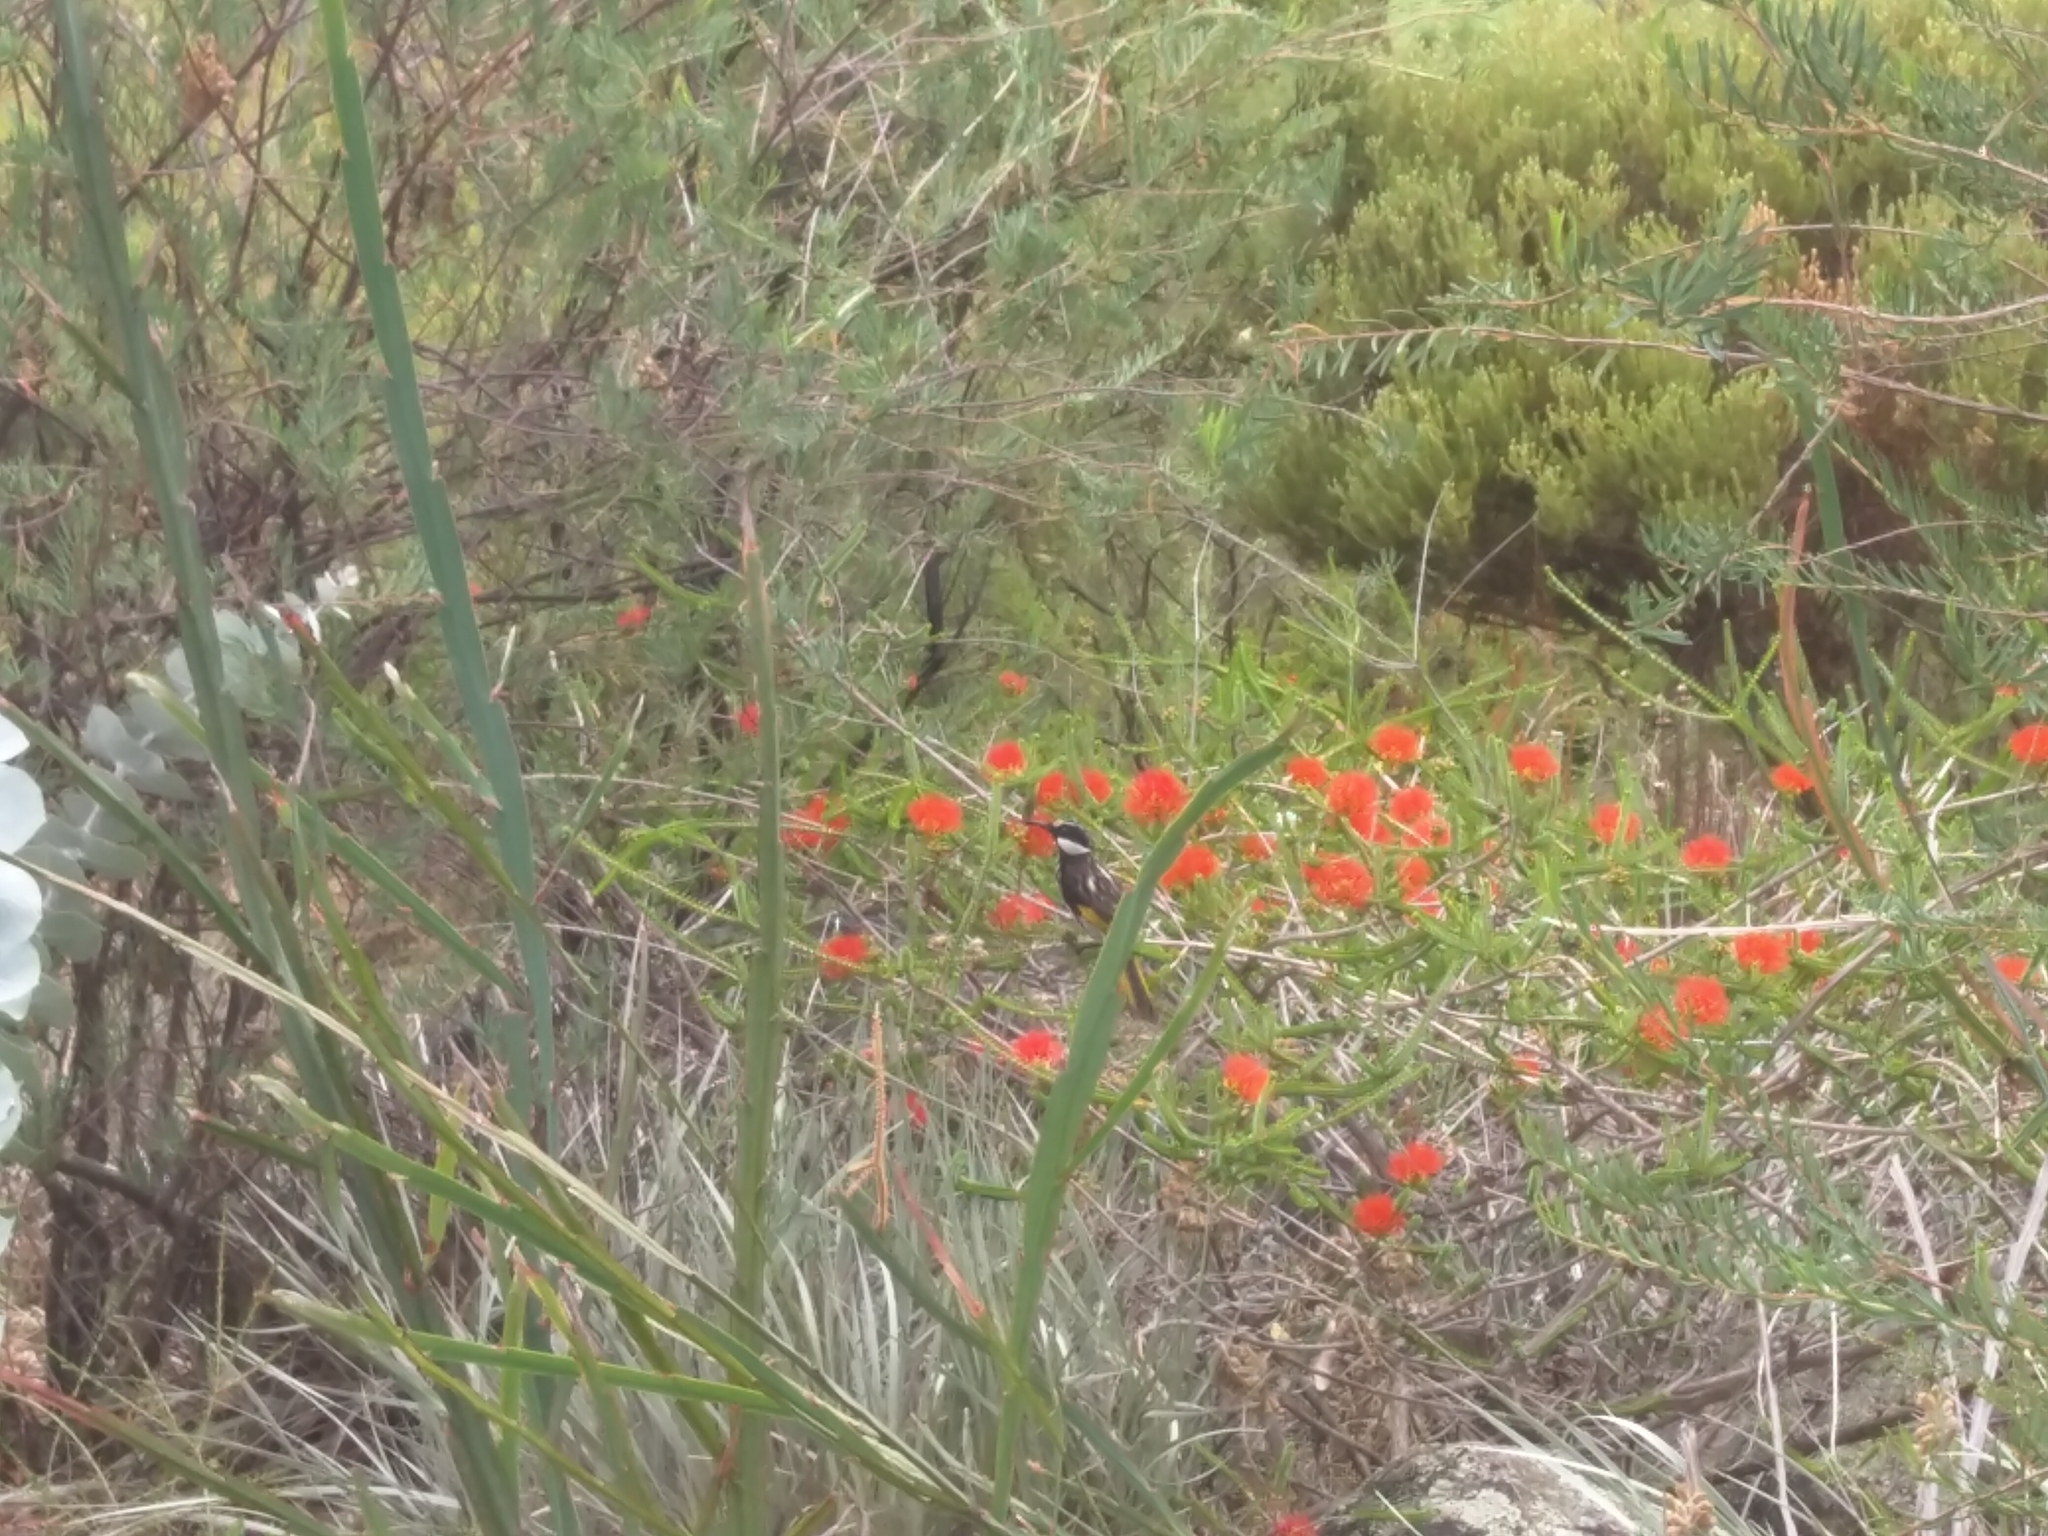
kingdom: Animalia
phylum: Chordata
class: Aves
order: Passeriformes
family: Meliphagidae
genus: Phylidonyris
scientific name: Phylidonyris niger
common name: White-cheeked honeyeater
